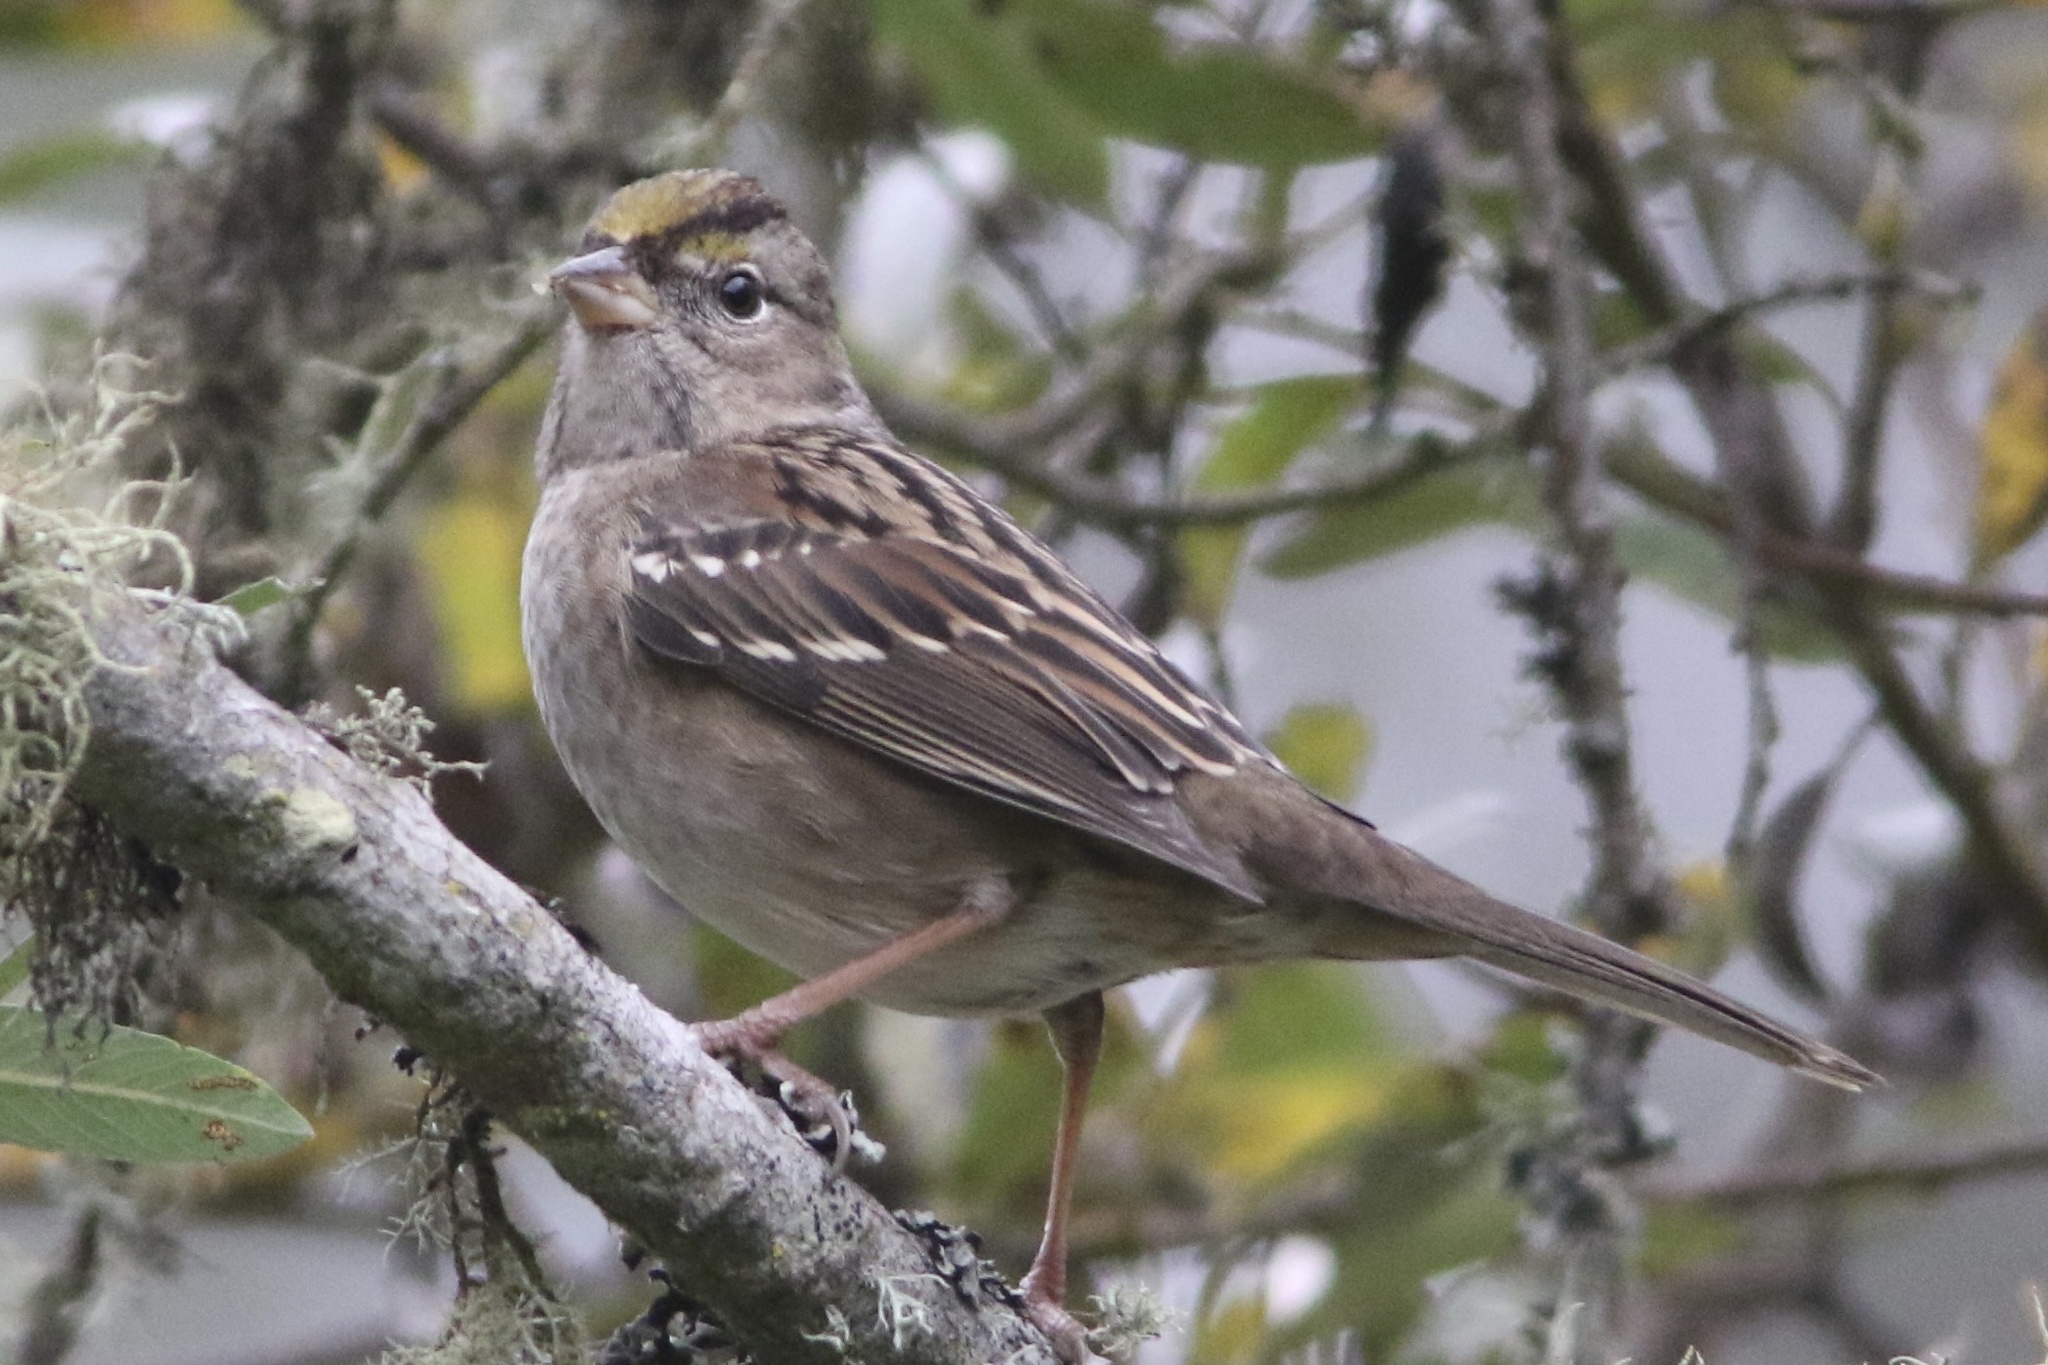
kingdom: Animalia
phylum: Chordata
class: Aves
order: Passeriformes
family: Passerellidae
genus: Zonotrichia
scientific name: Zonotrichia atricapilla
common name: Golden-crowned sparrow
